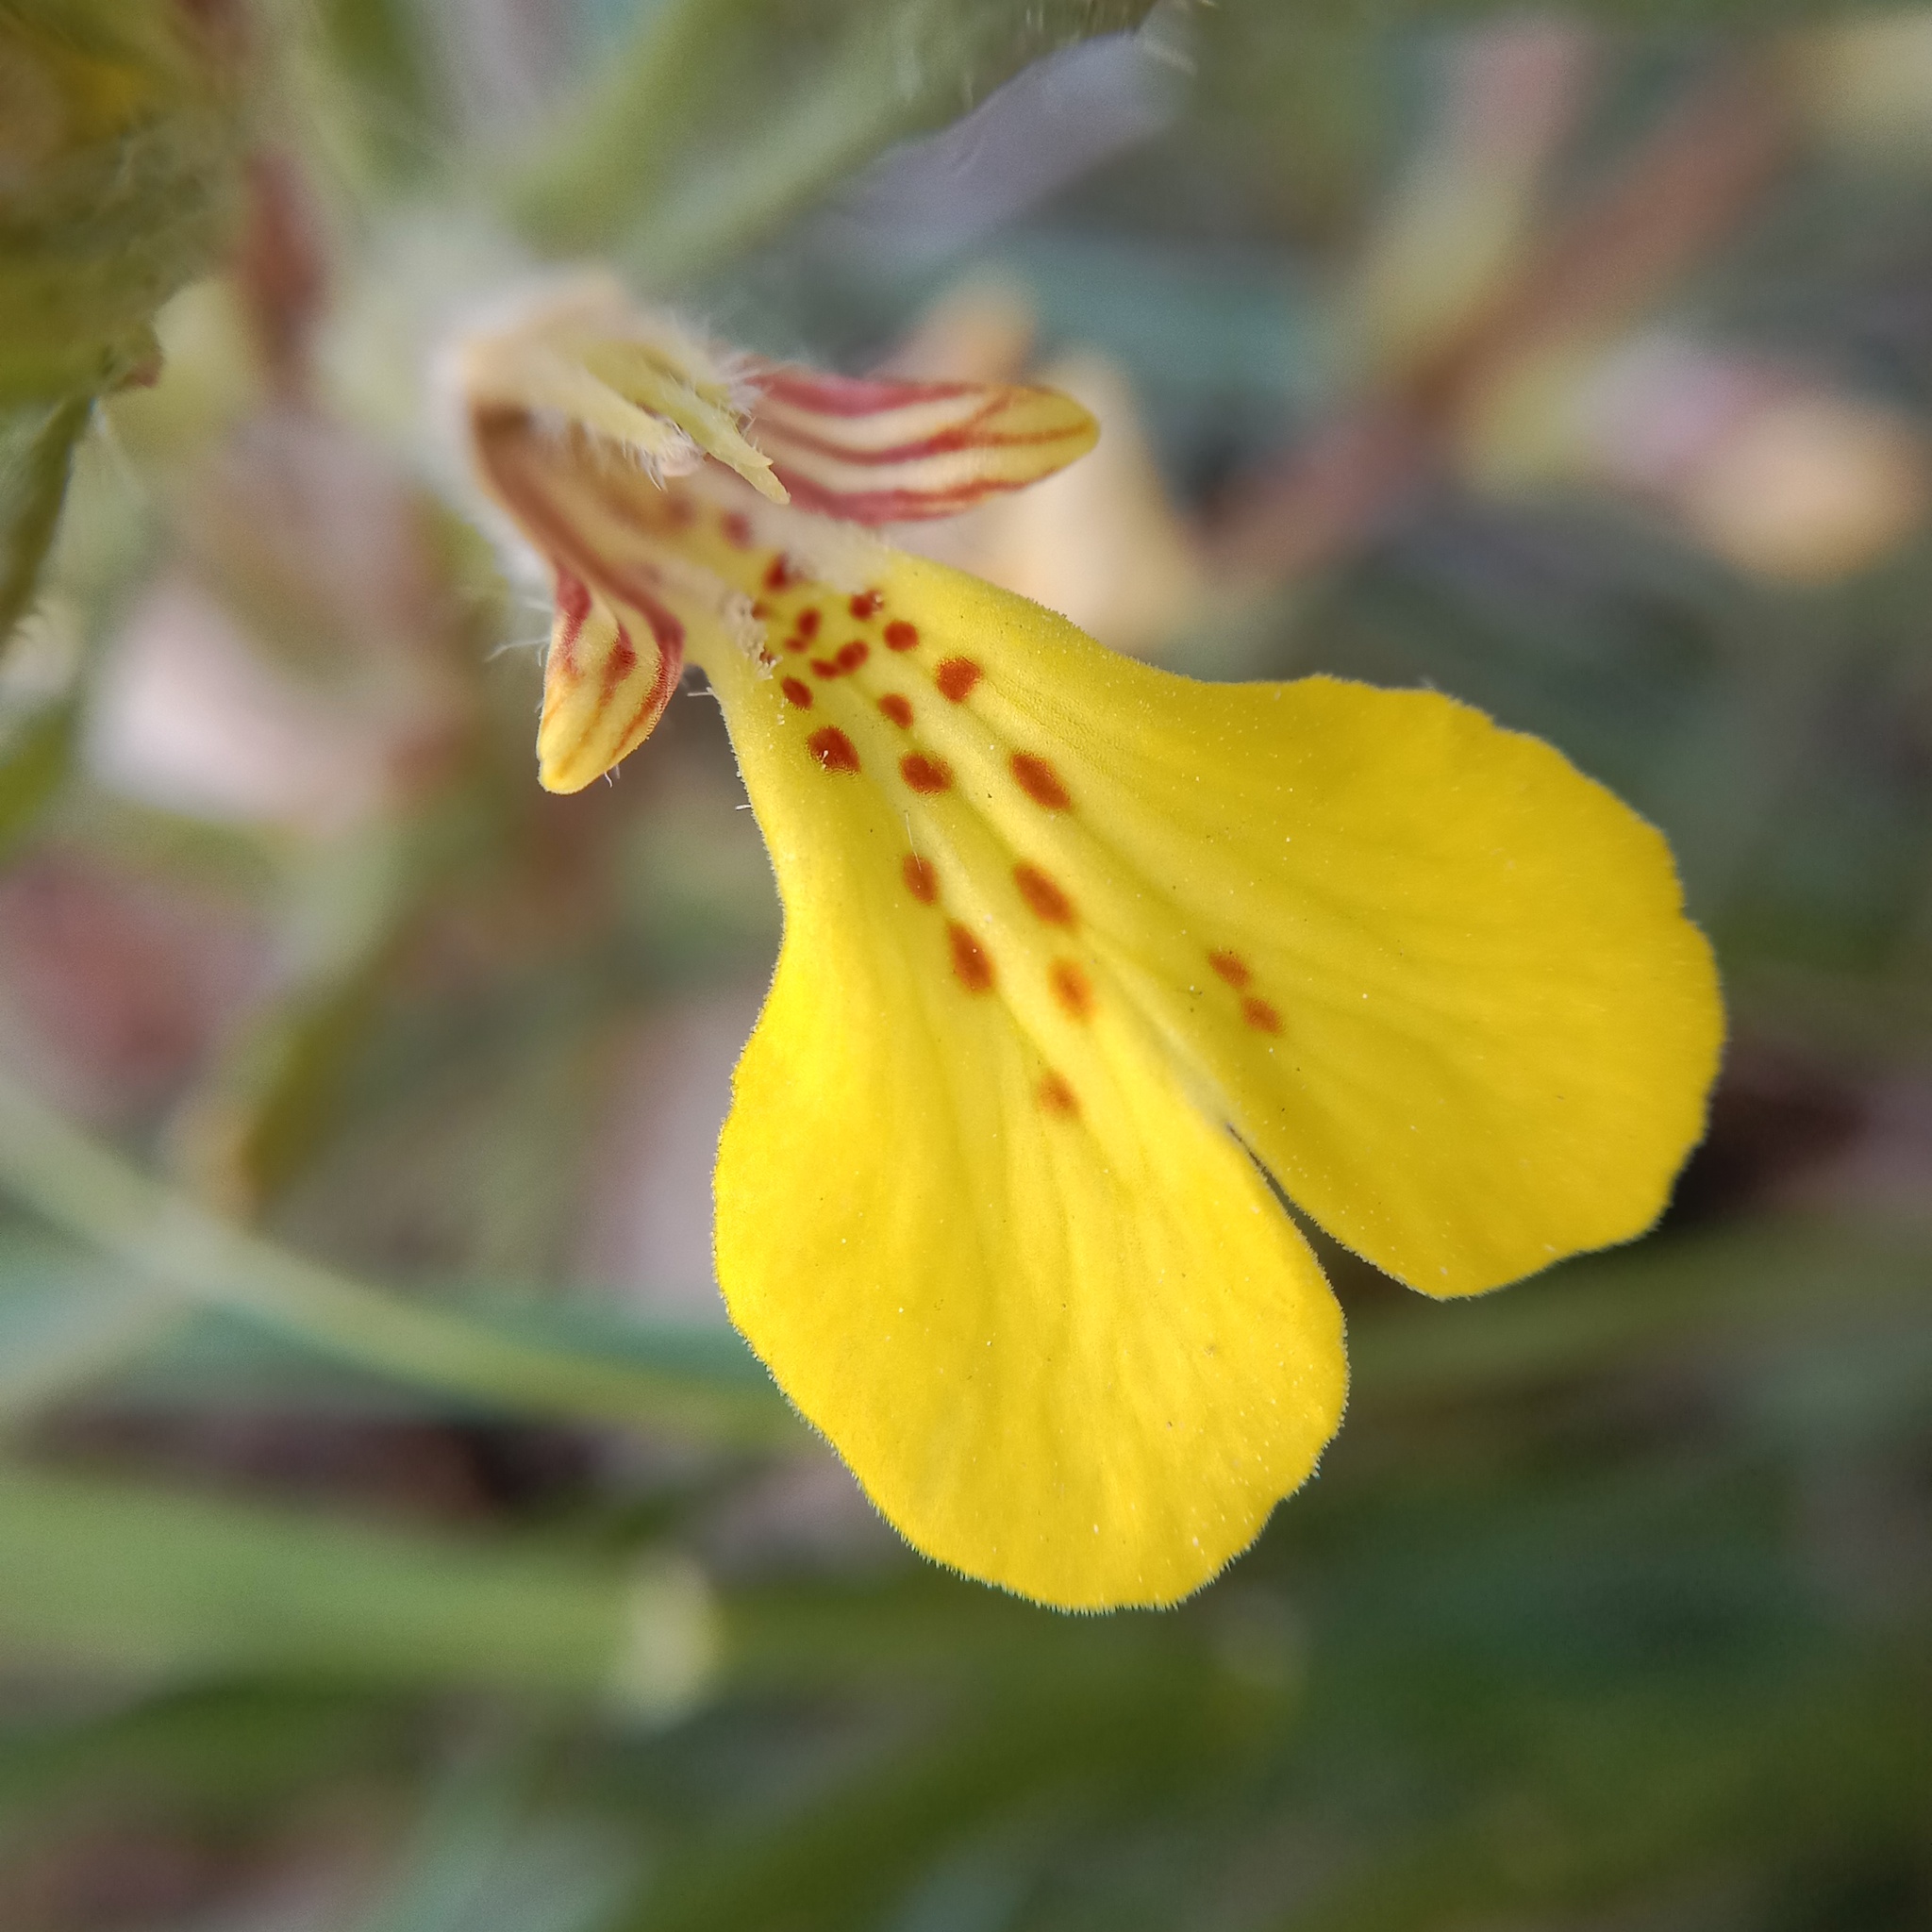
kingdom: Plantae
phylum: Tracheophyta
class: Magnoliopsida
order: Lamiales
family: Lamiaceae
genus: Ajuga
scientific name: Ajuga chamaepitys
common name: Ground-pine
